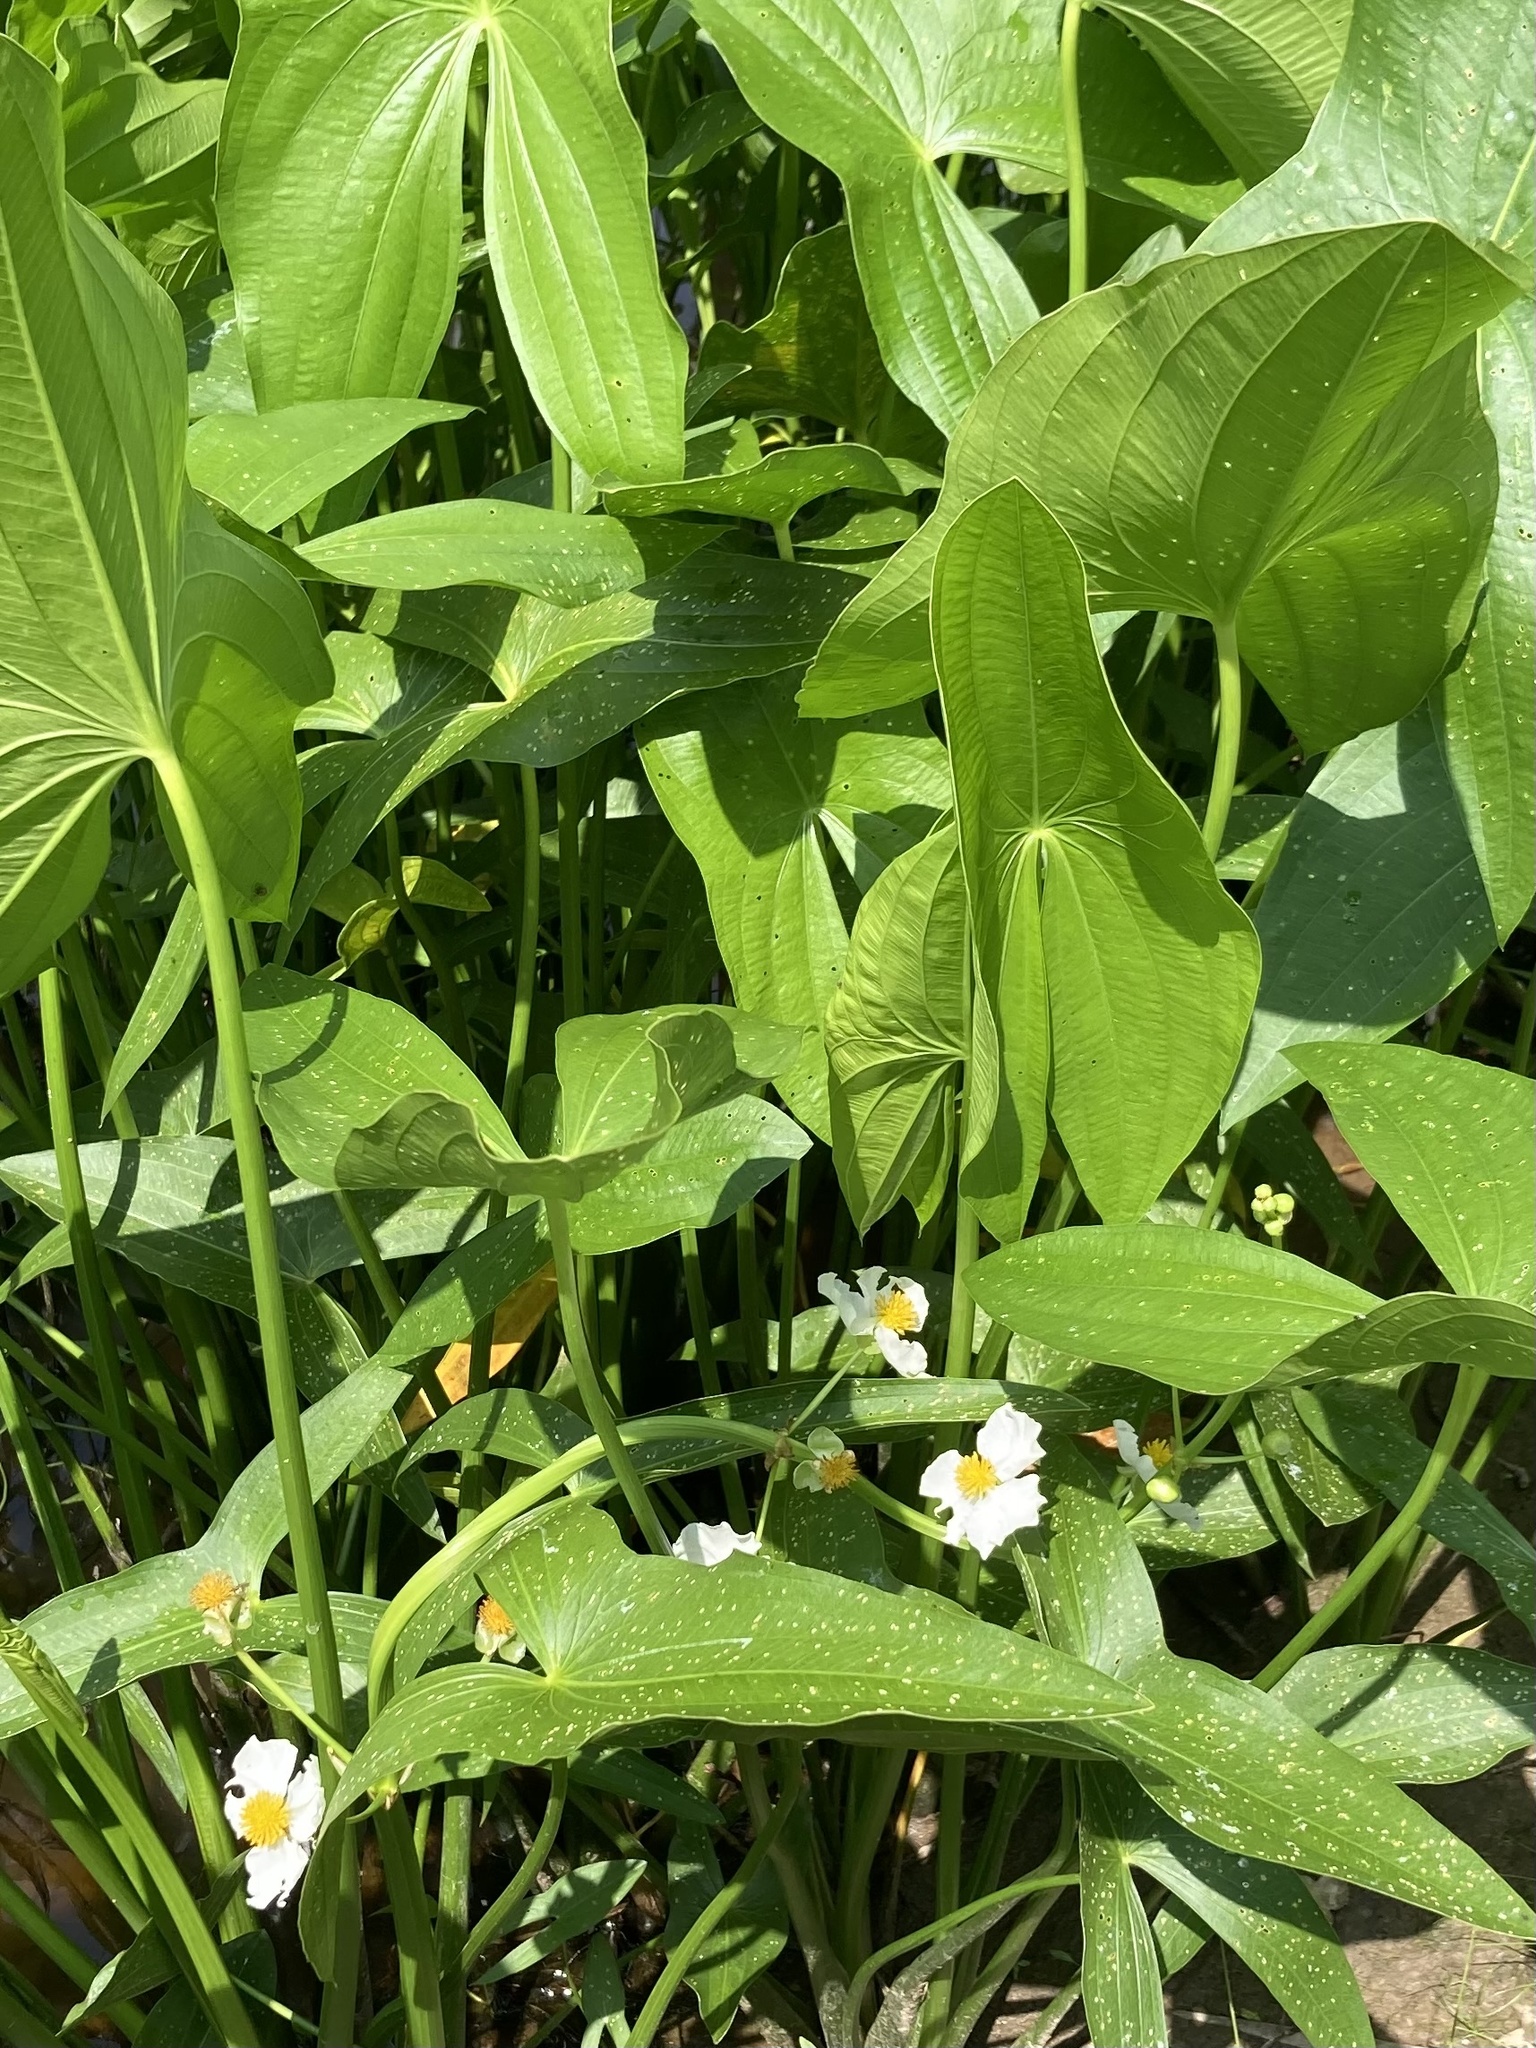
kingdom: Plantae
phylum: Tracheophyta
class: Liliopsida
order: Alismatales
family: Alismataceae
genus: Sagittaria
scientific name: Sagittaria latifolia
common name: Duck-potato
